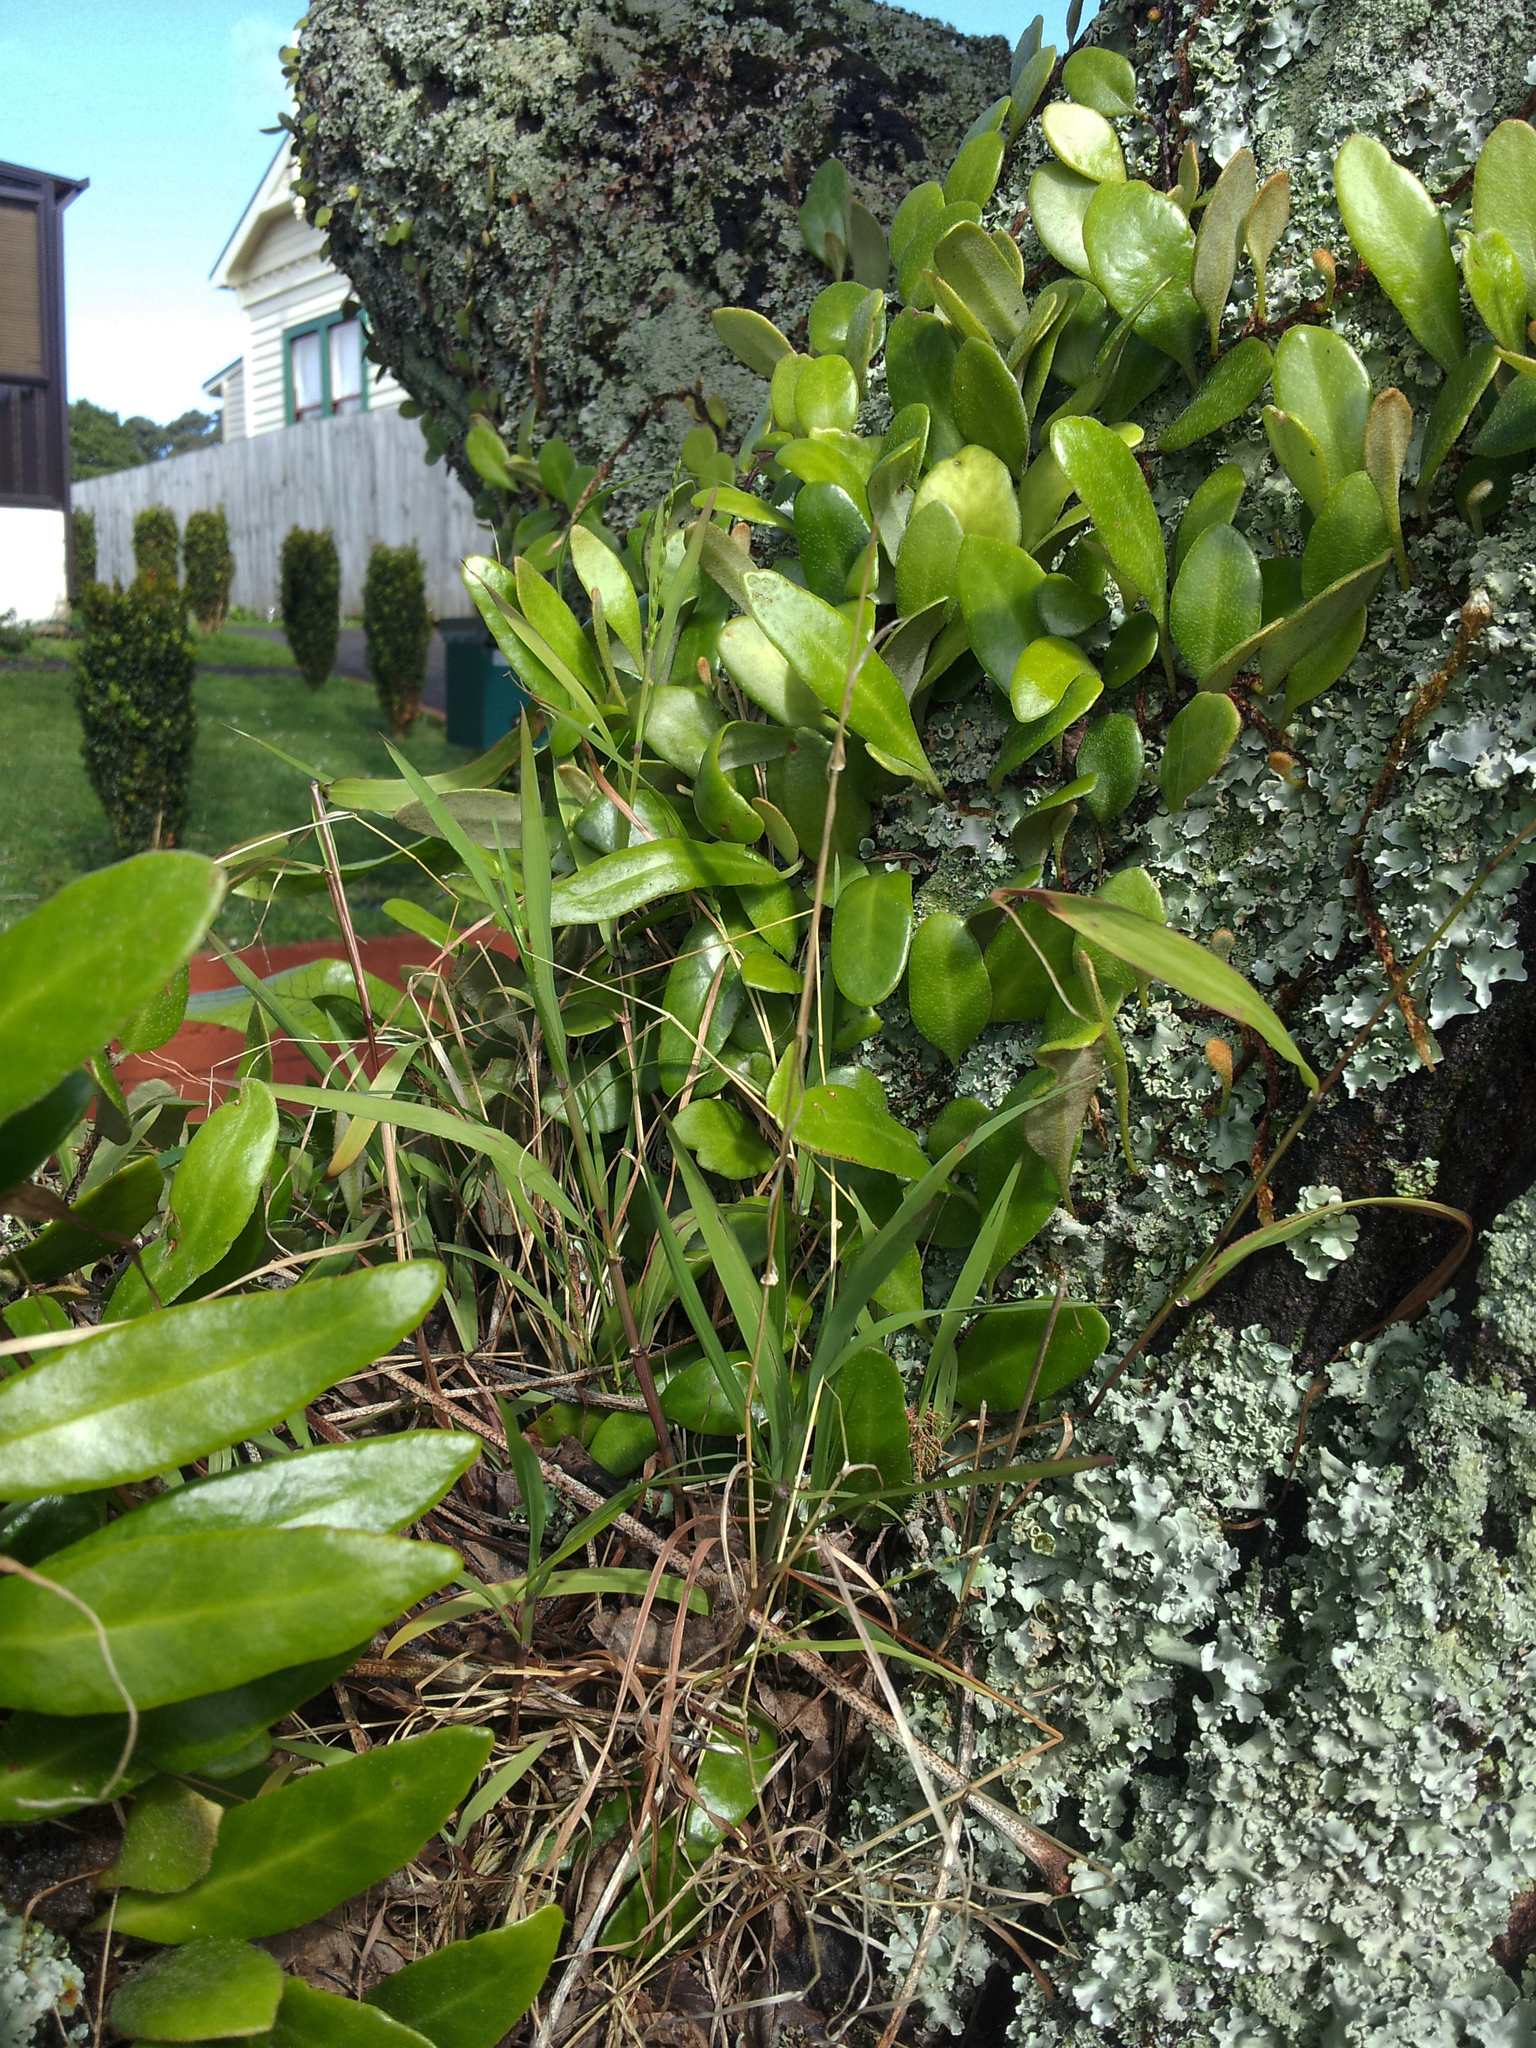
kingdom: Plantae
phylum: Tracheophyta
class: Liliopsida
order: Poales
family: Poaceae
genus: Ehrharta
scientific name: Ehrharta erecta
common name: Panic veldtgrass
